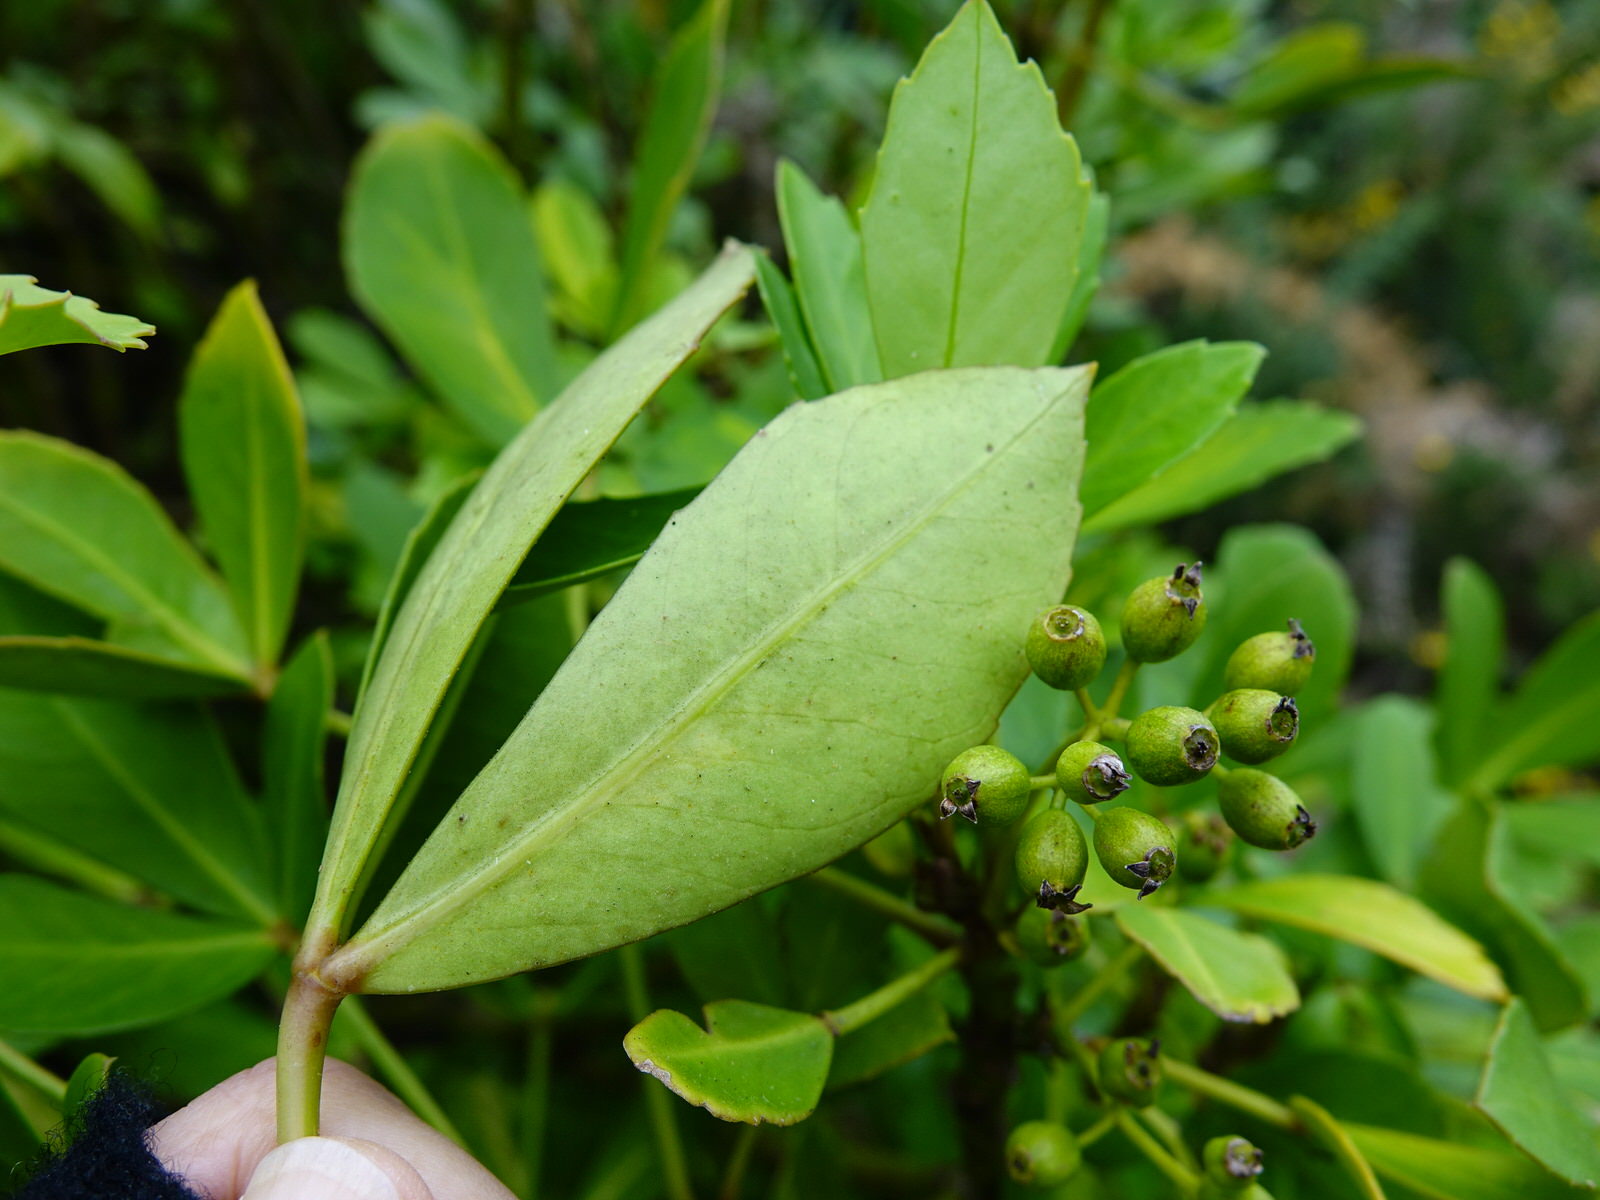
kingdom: Plantae
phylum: Tracheophyta
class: Magnoliopsida
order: Apiales
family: Araliaceae
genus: Pseudopanax
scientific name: Pseudopanax lessonii
